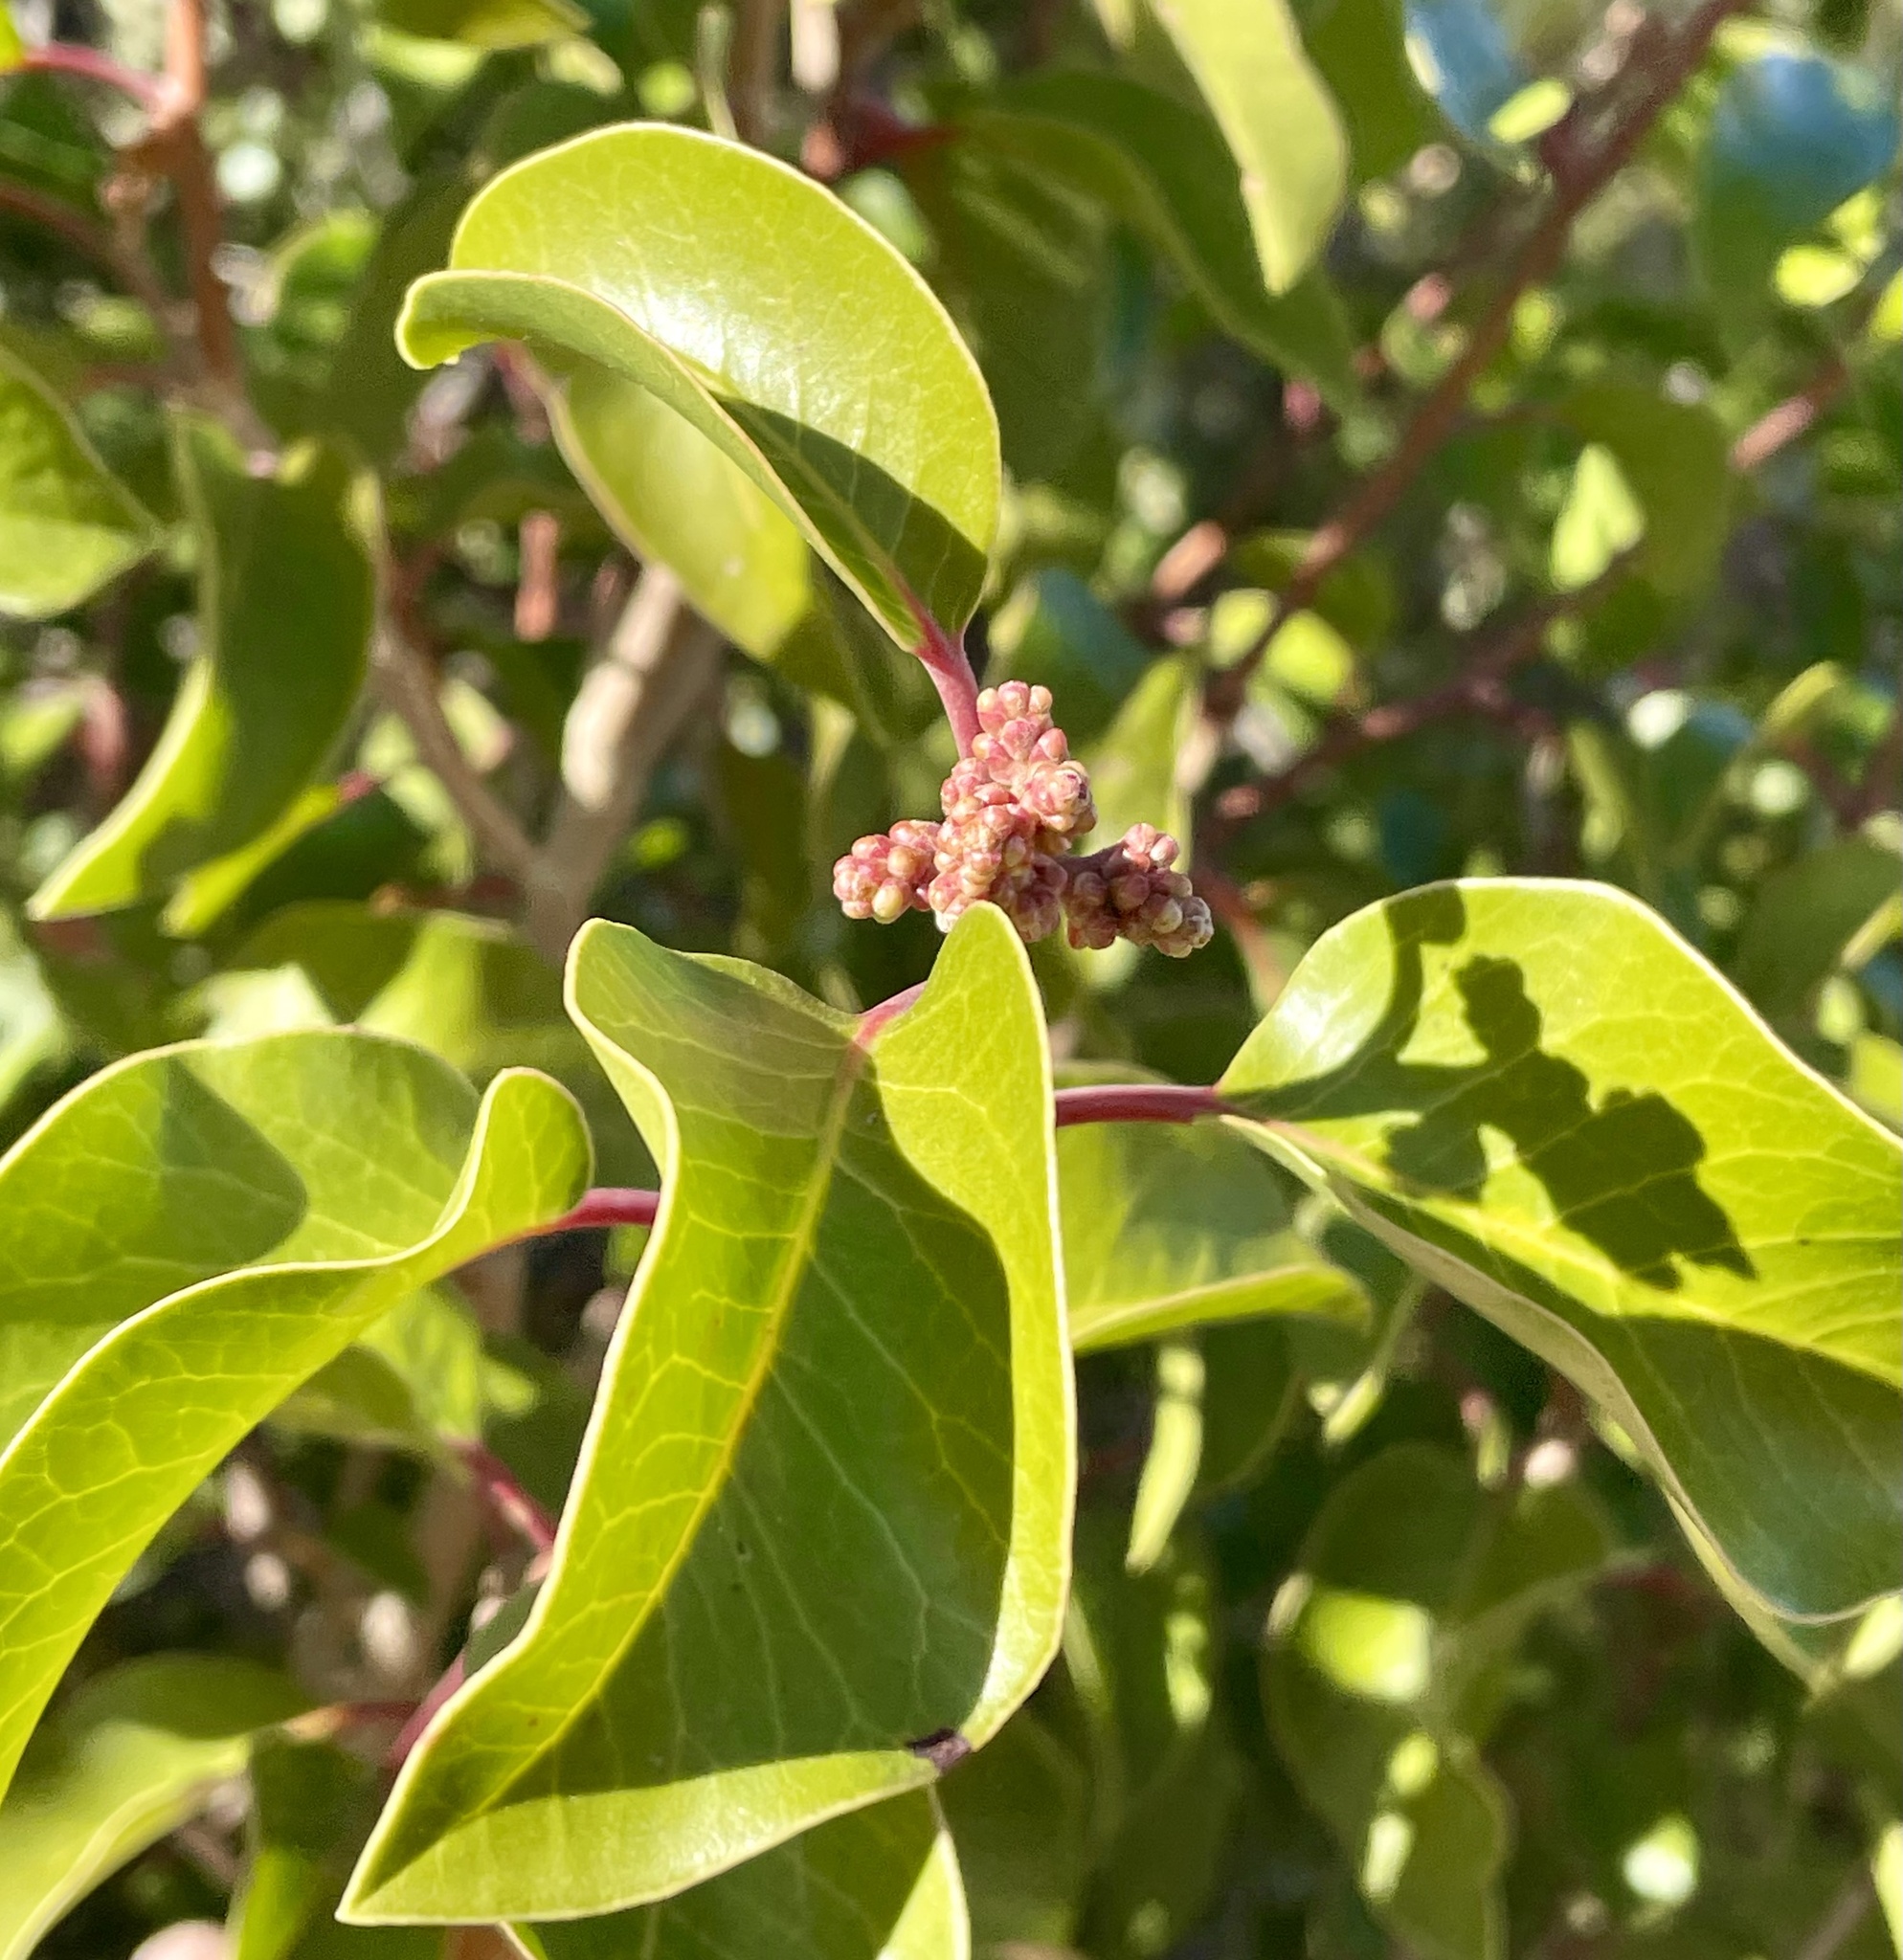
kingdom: Plantae
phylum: Tracheophyta
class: Magnoliopsida
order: Sapindales
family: Anacardiaceae
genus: Rhus
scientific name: Rhus ovata
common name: Sugar sumac
